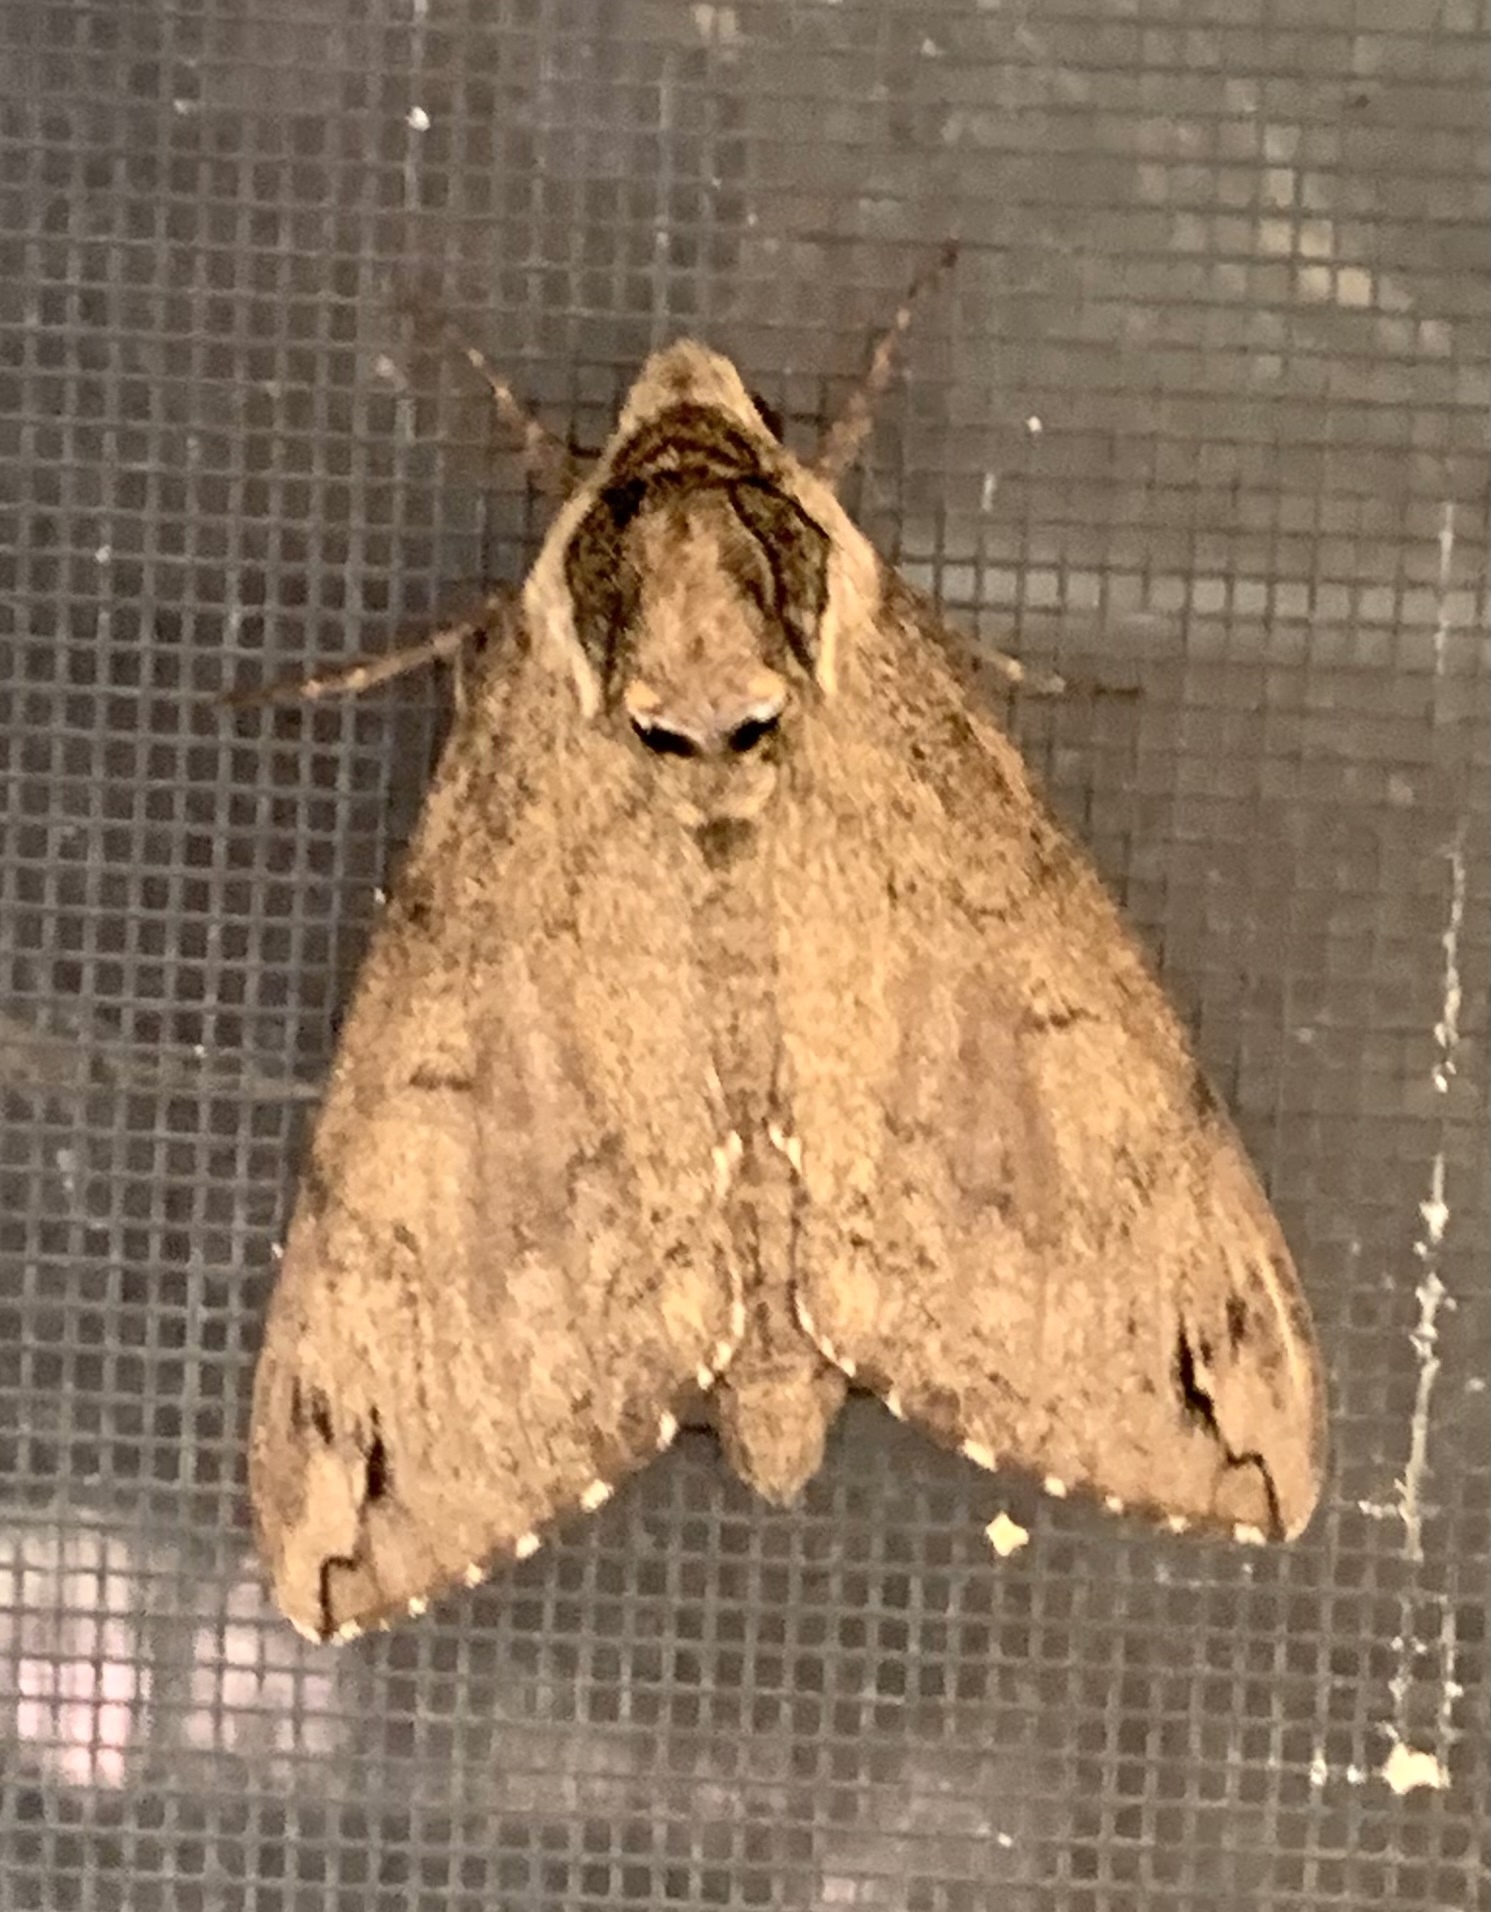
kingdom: Animalia
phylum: Arthropoda
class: Insecta
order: Lepidoptera
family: Sphingidae
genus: Ceratomia
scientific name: Ceratomia catalpae
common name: Catalpa hornworm
